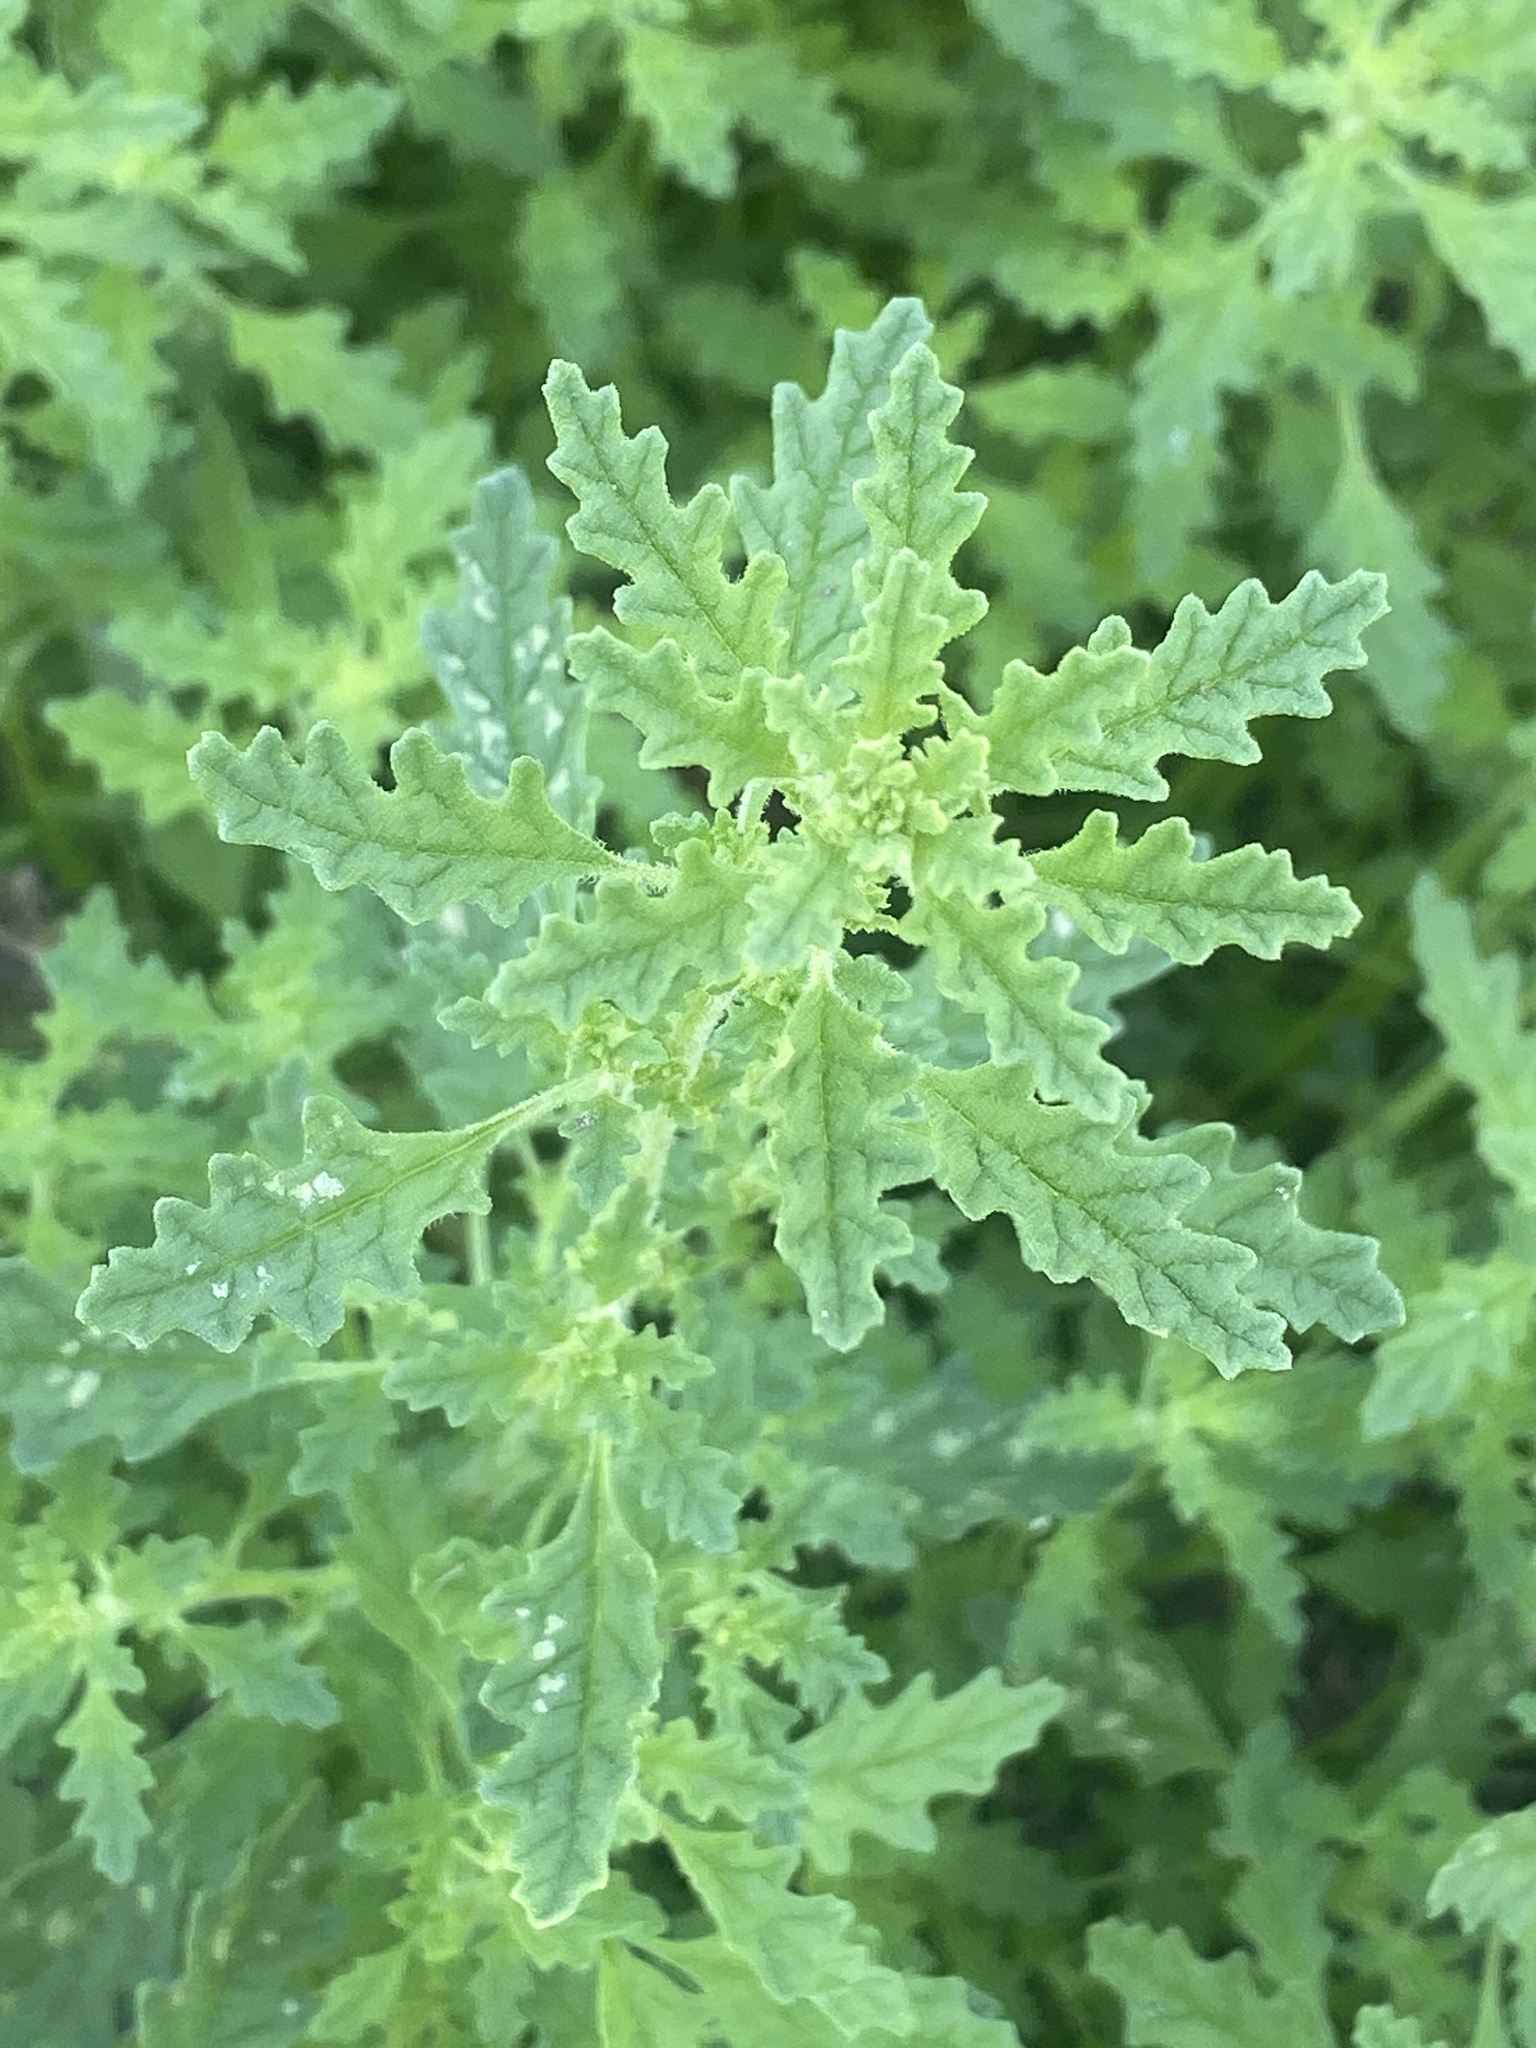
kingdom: Plantae
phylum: Tracheophyta
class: Magnoliopsida
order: Caryophyllales
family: Amaranthaceae
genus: Dysphania
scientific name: Dysphania pumilio
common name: Clammy goosefoot
